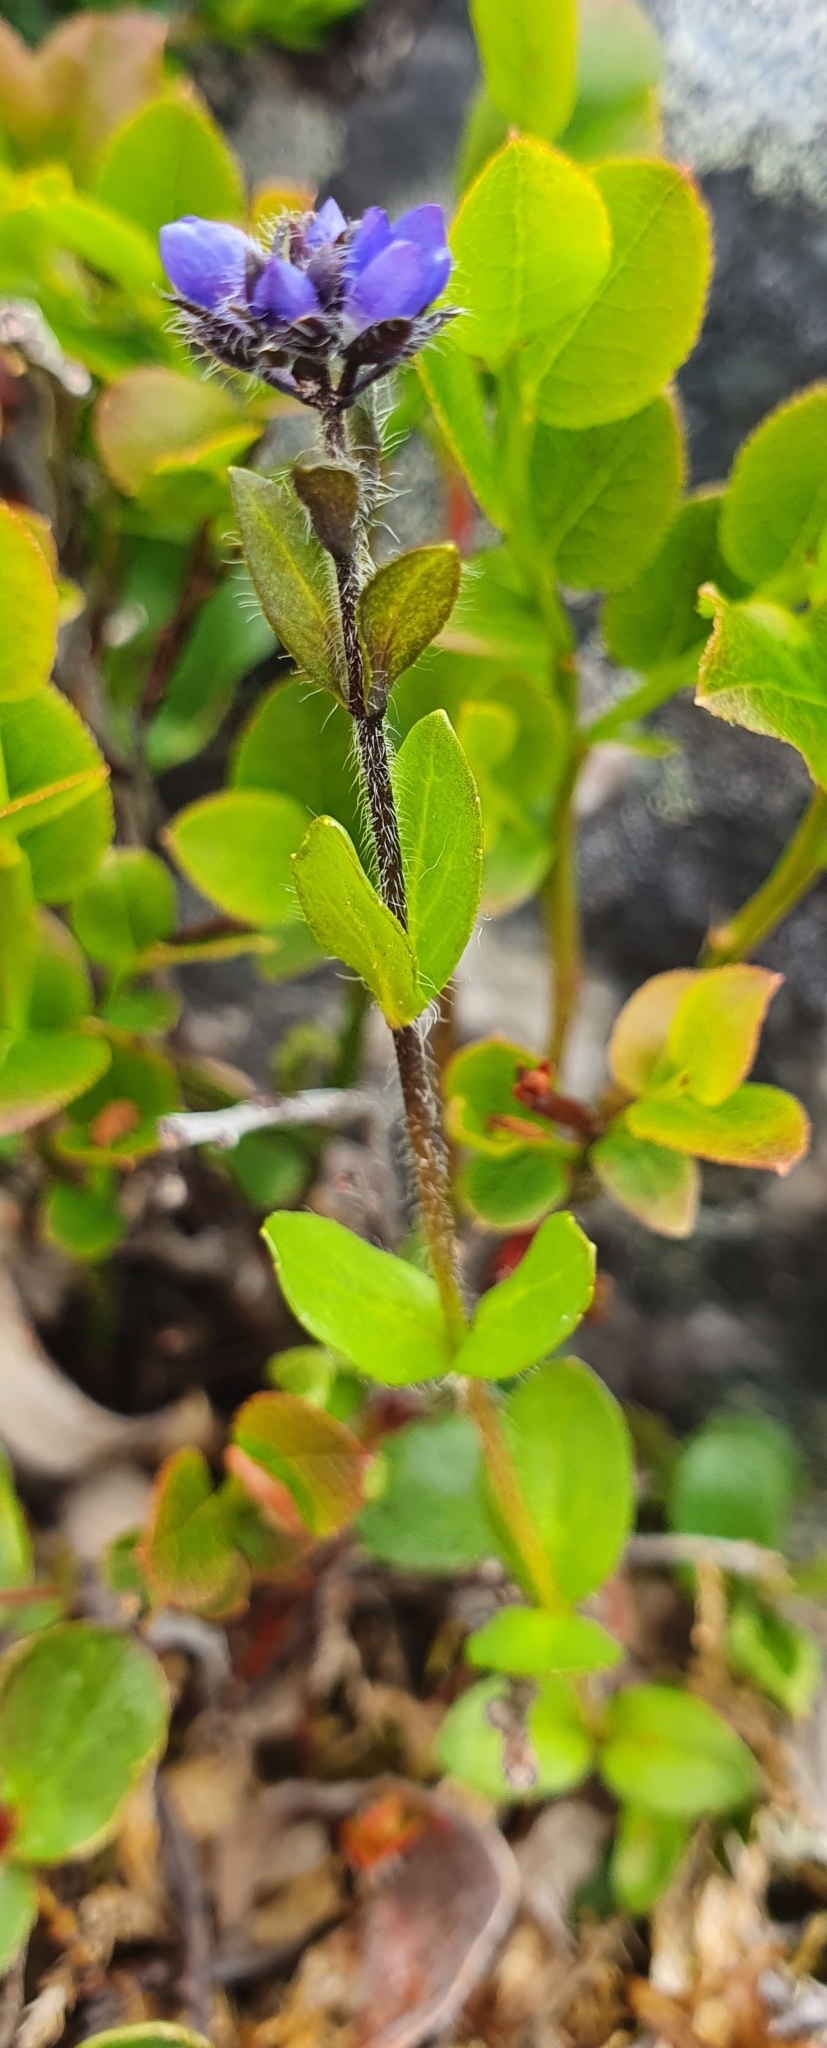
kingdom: Plantae
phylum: Tracheophyta
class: Magnoliopsida
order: Lamiales
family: Plantaginaceae
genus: Veronica
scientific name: Veronica alpina
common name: Alpine speedwell
